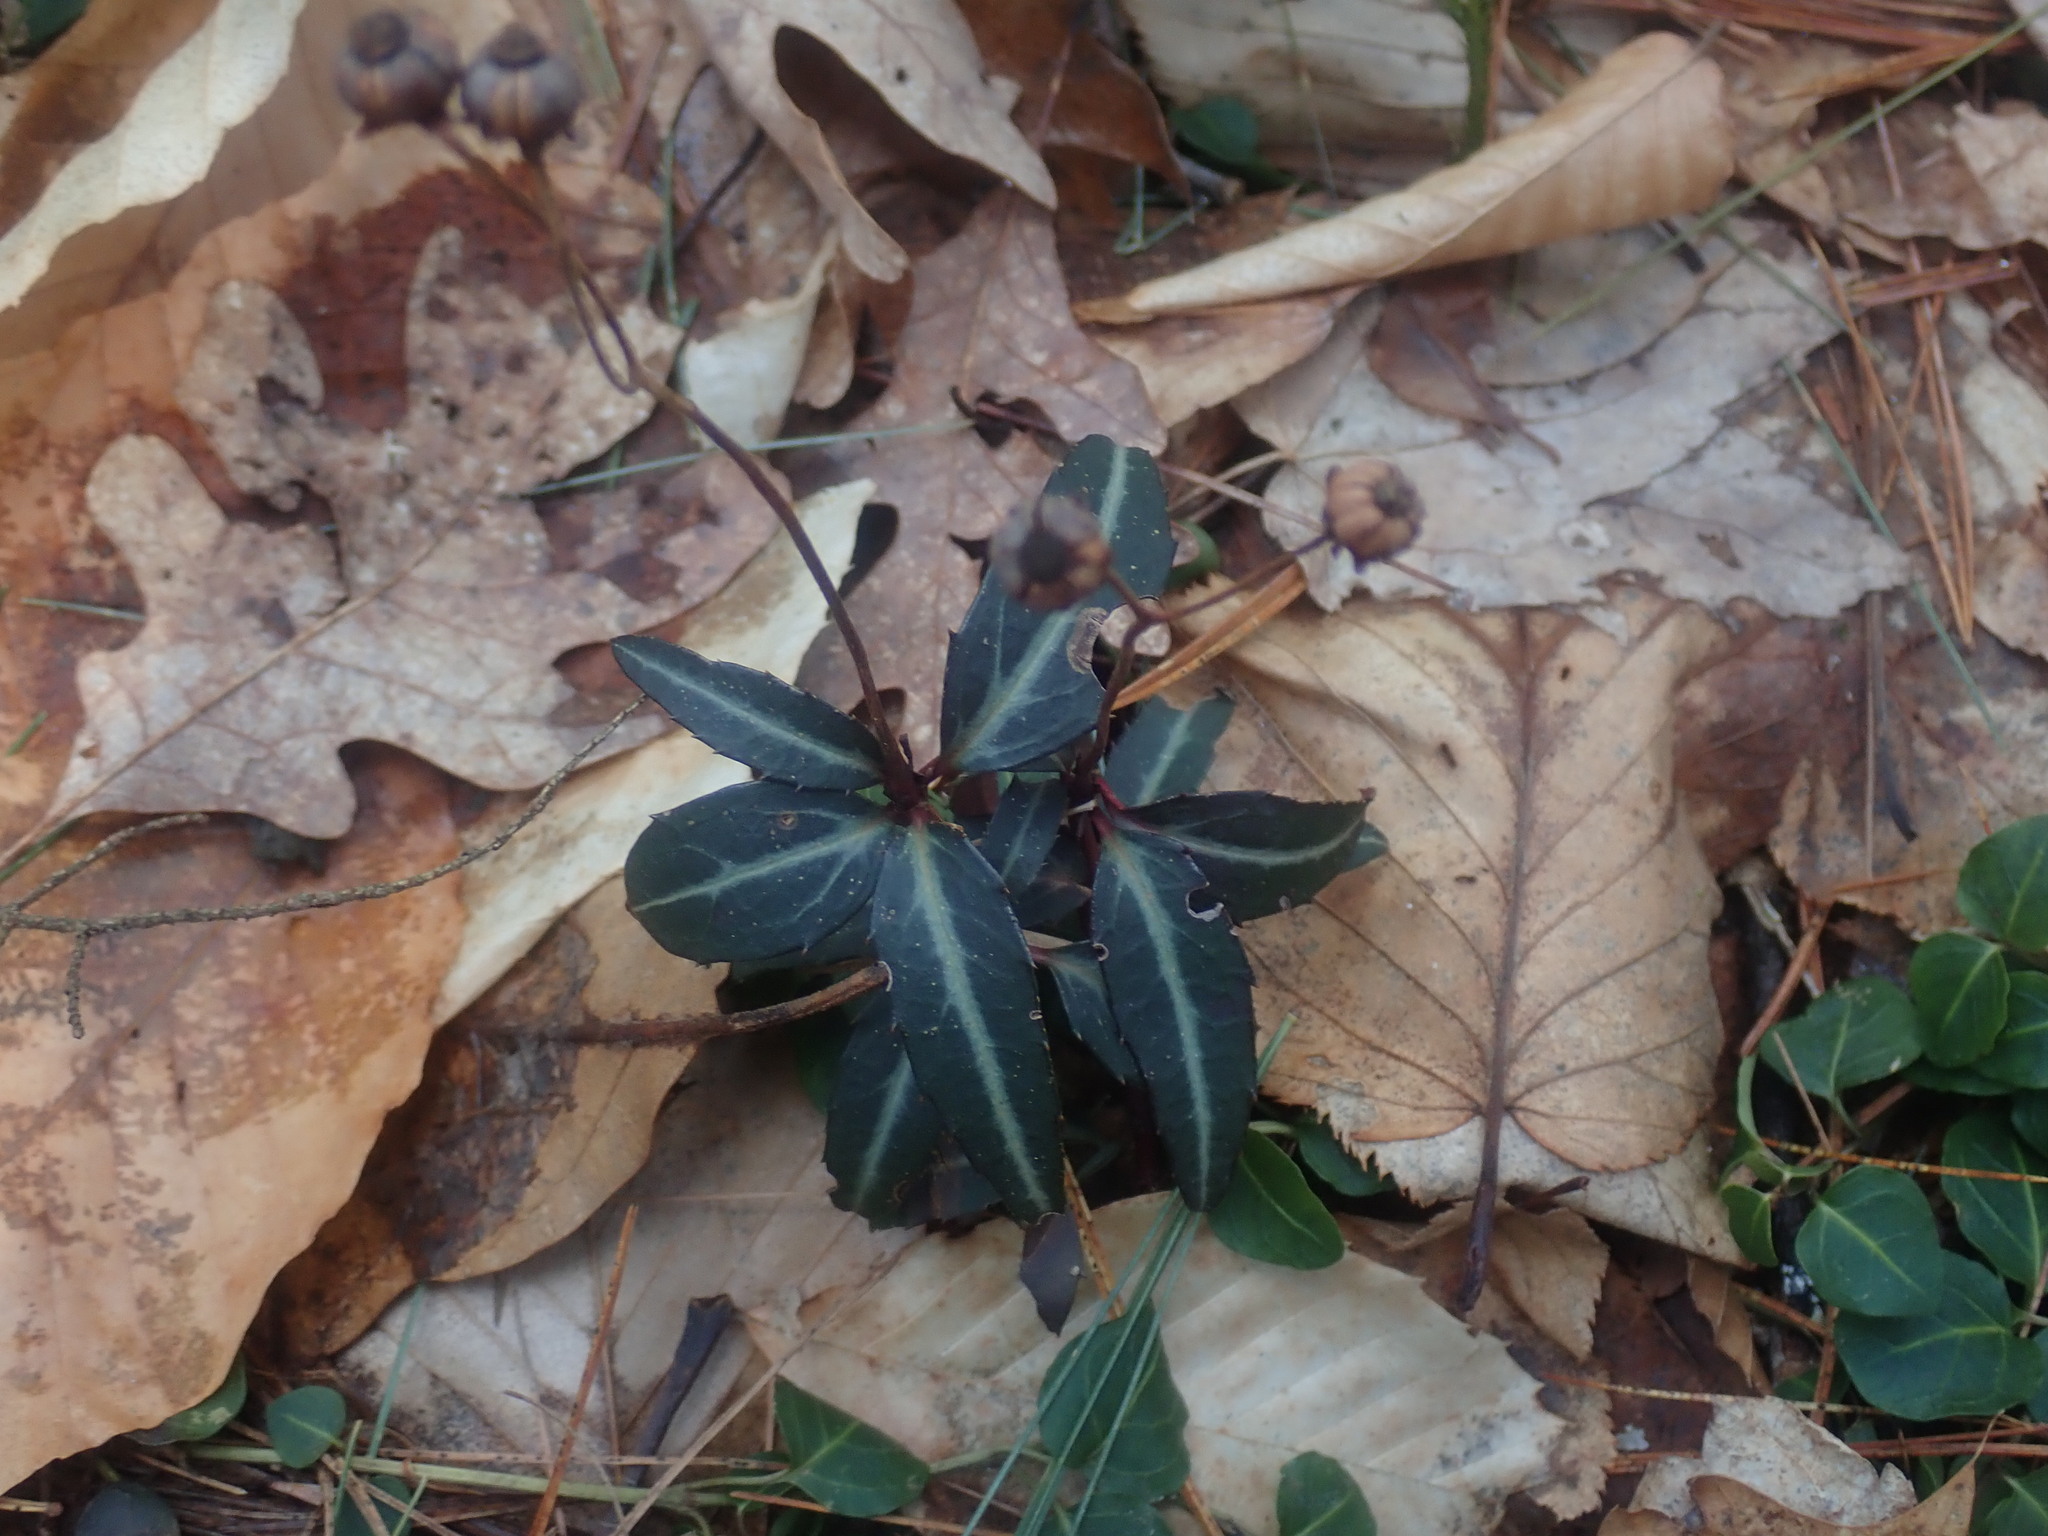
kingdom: Plantae
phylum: Tracheophyta
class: Magnoliopsida
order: Ericales
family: Ericaceae
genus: Chimaphila
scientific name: Chimaphila maculata
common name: Spotted pipsissewa
